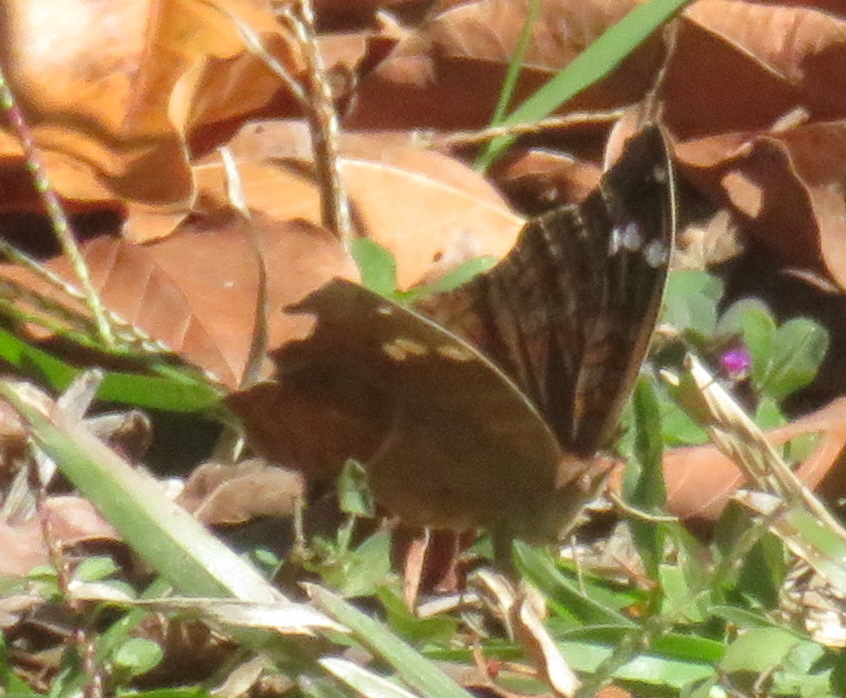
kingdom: Animalia
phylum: Arthropoda
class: Insecta
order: Lepidoptera
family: Nymphalidae
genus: Junonia
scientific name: Junonia natalica
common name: Brown pansy
